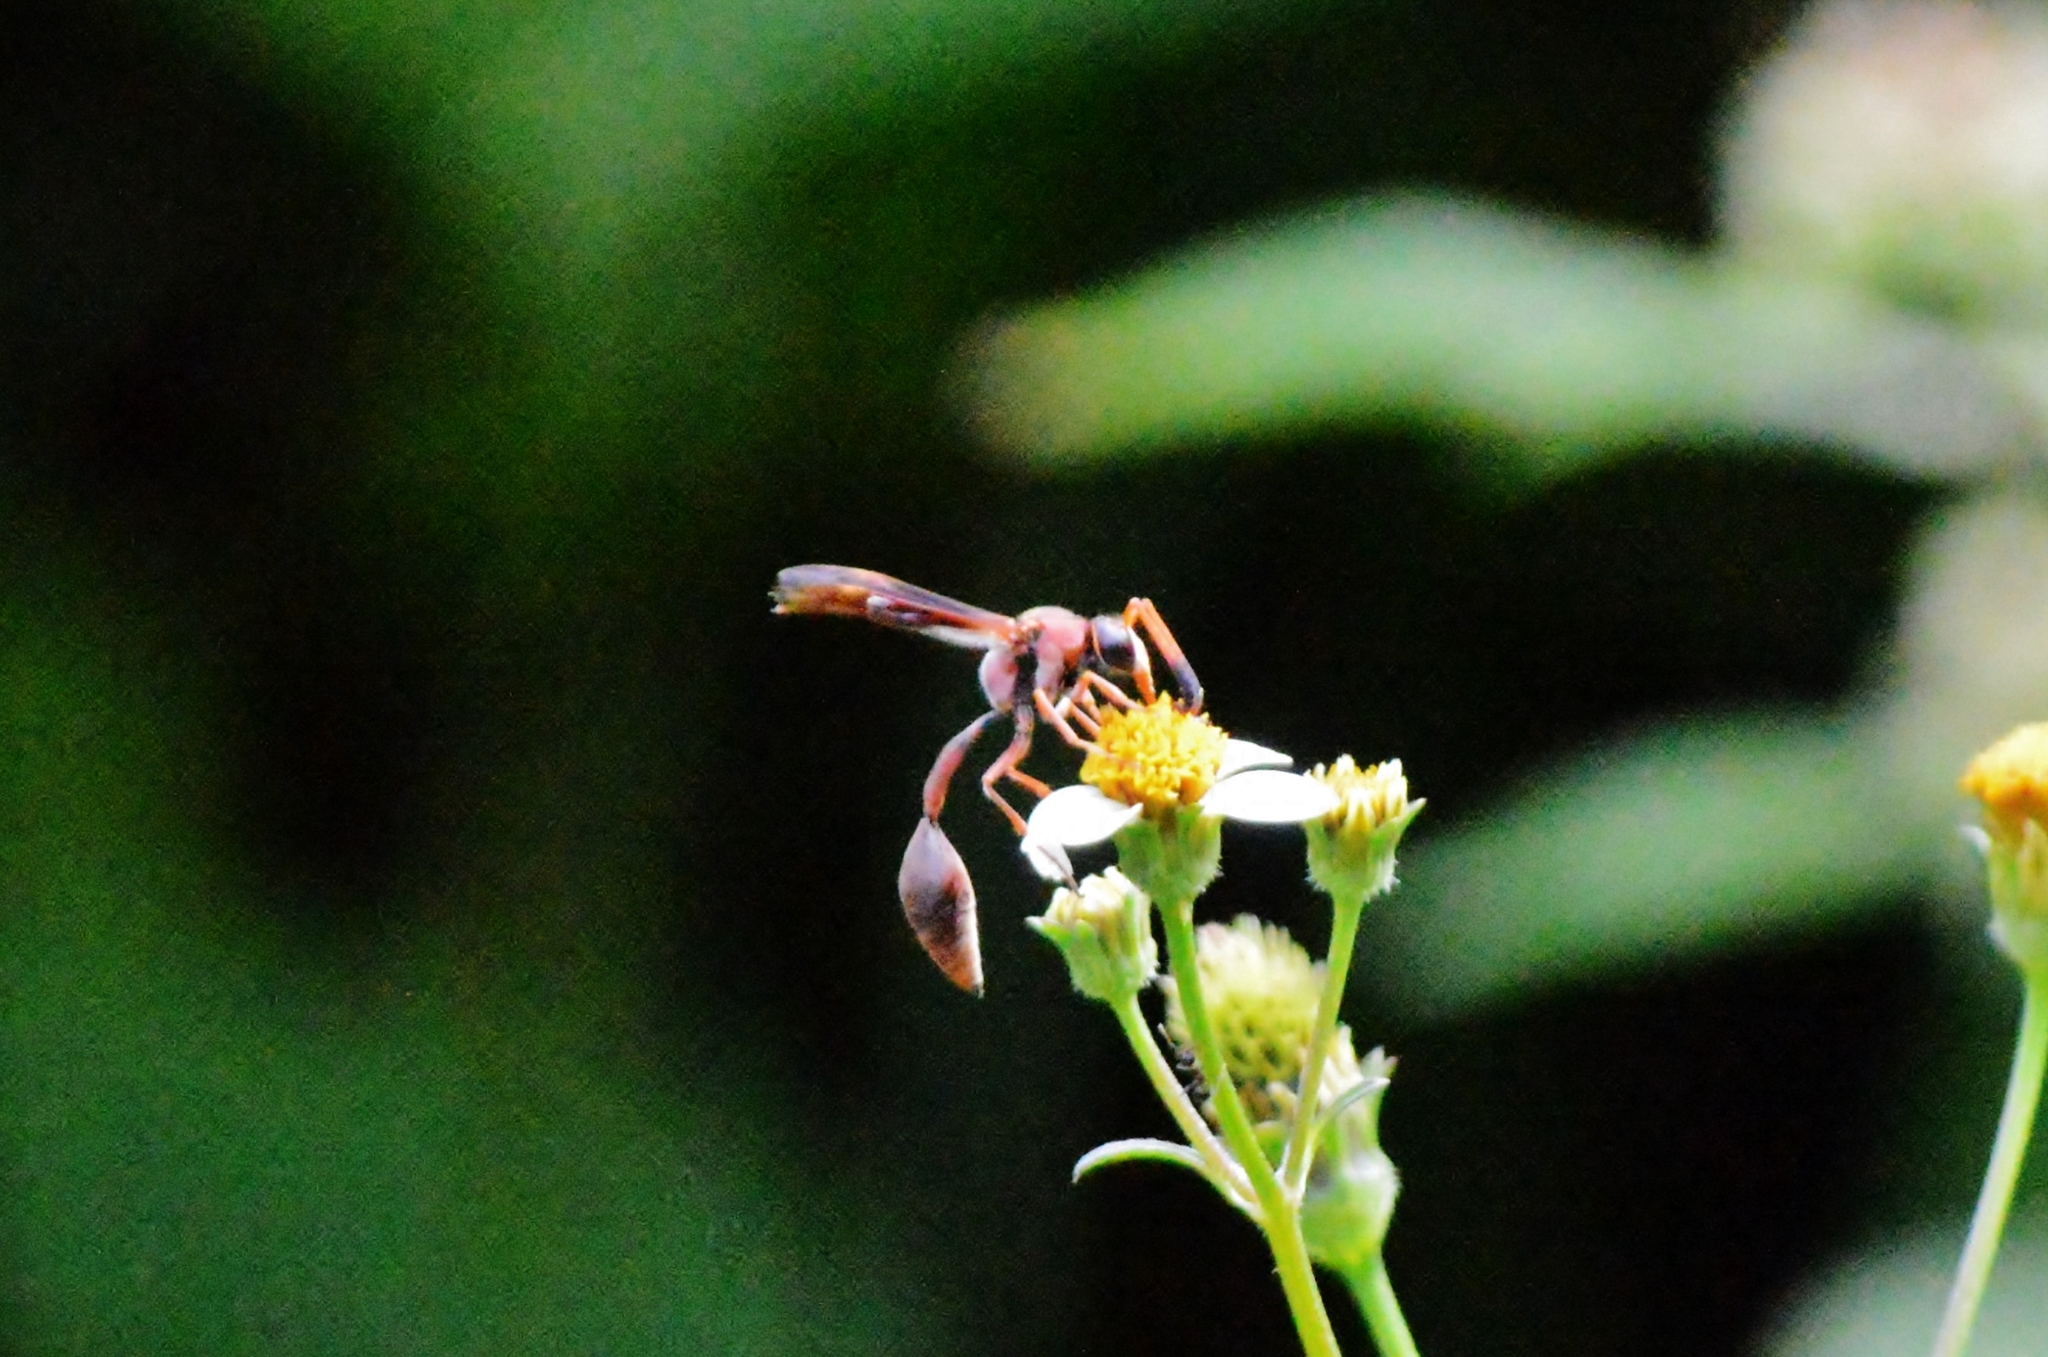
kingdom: Animalia
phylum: Arthropoda
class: Insecta
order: Hymenoptera
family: Eumenidae
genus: Zeta
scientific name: Zeta argillaceum
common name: Potter wasp
